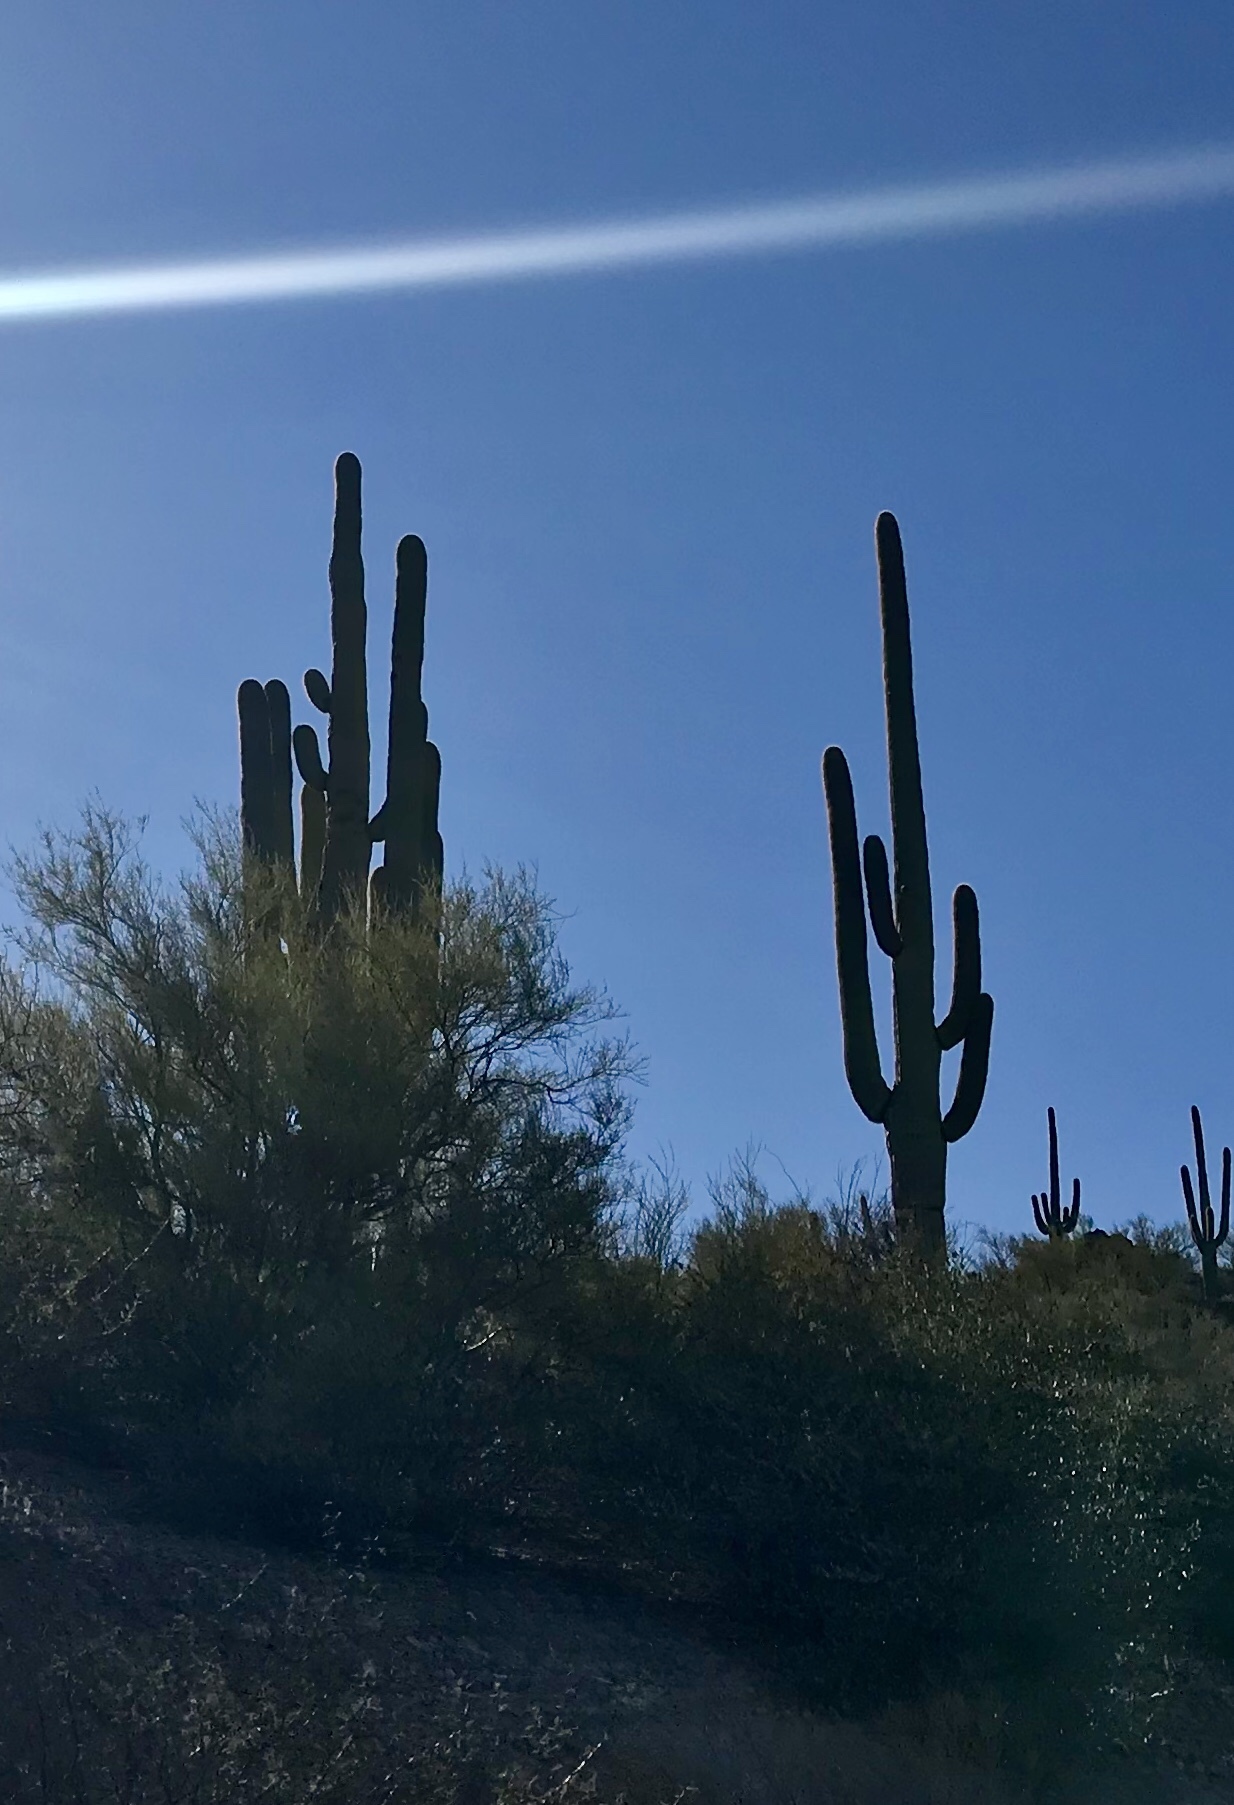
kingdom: Plantae
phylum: Tracheophyta
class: Magnoliopsida
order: Caryophyllales
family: Cactaceae
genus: Carnegiea
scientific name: Carnegiea gigantea
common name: Saguaro
